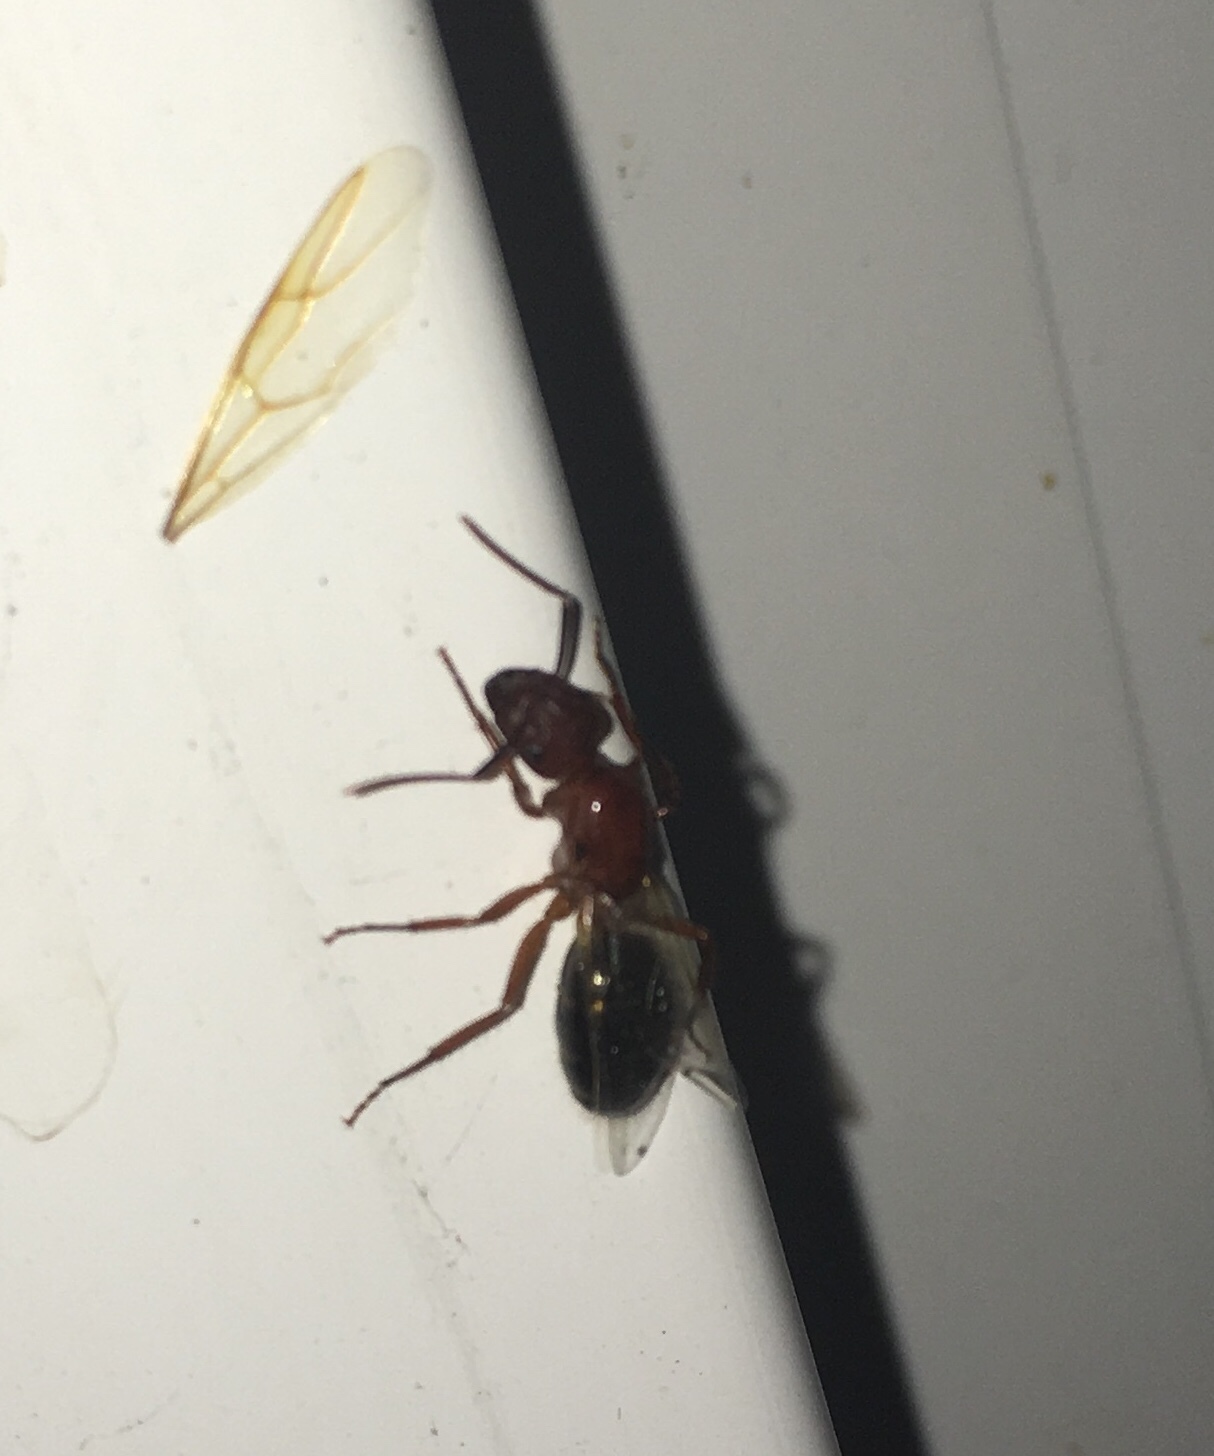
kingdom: Animalia
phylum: Arthropoda
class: Insecta
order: Hymenoptera
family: Formicidae
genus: Camponotus
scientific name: Camponotus floridanus
